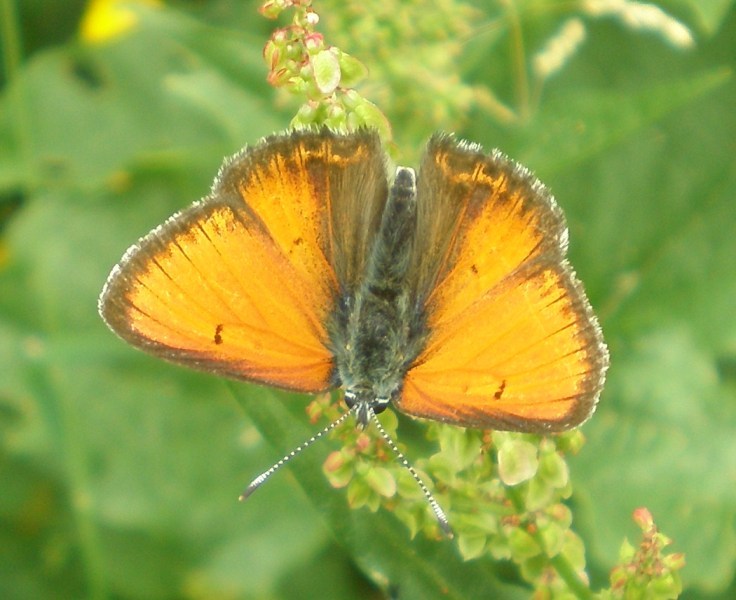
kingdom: Animalia
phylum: Arthropoda
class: Insecta
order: Lepidoptera
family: Lycaenidae
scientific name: Lycaenidae
